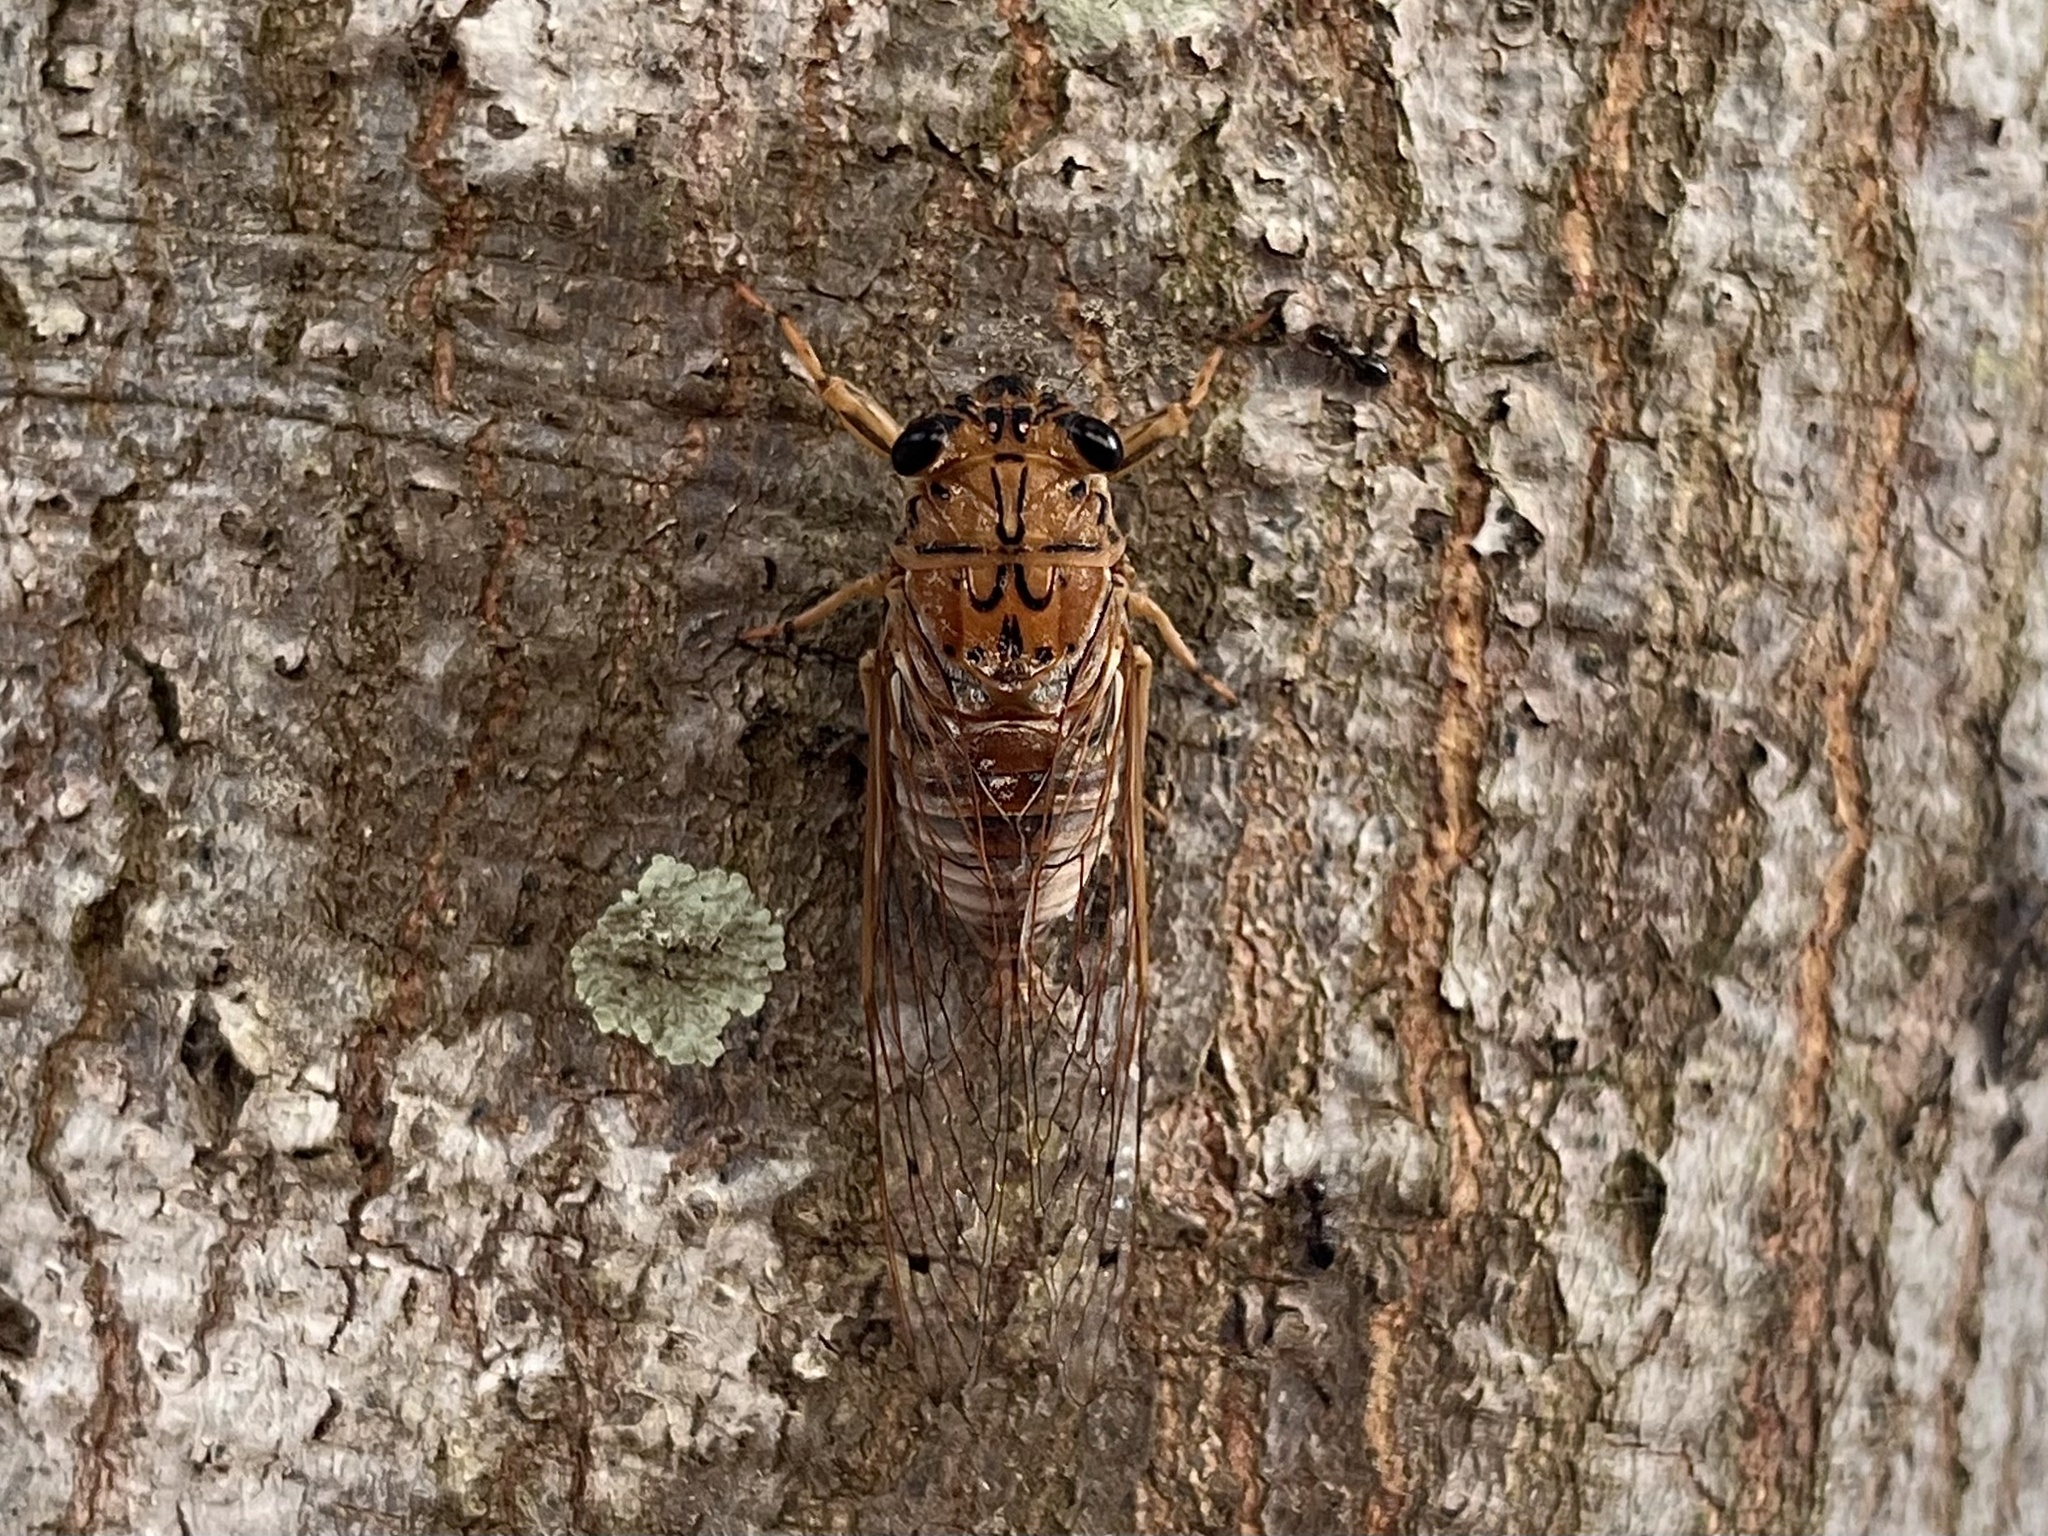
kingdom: Animalia
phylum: Arthropoda
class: Insecta
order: Hemiptera
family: Cicadidae
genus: Tamasa
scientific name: Tamasa tristigma
